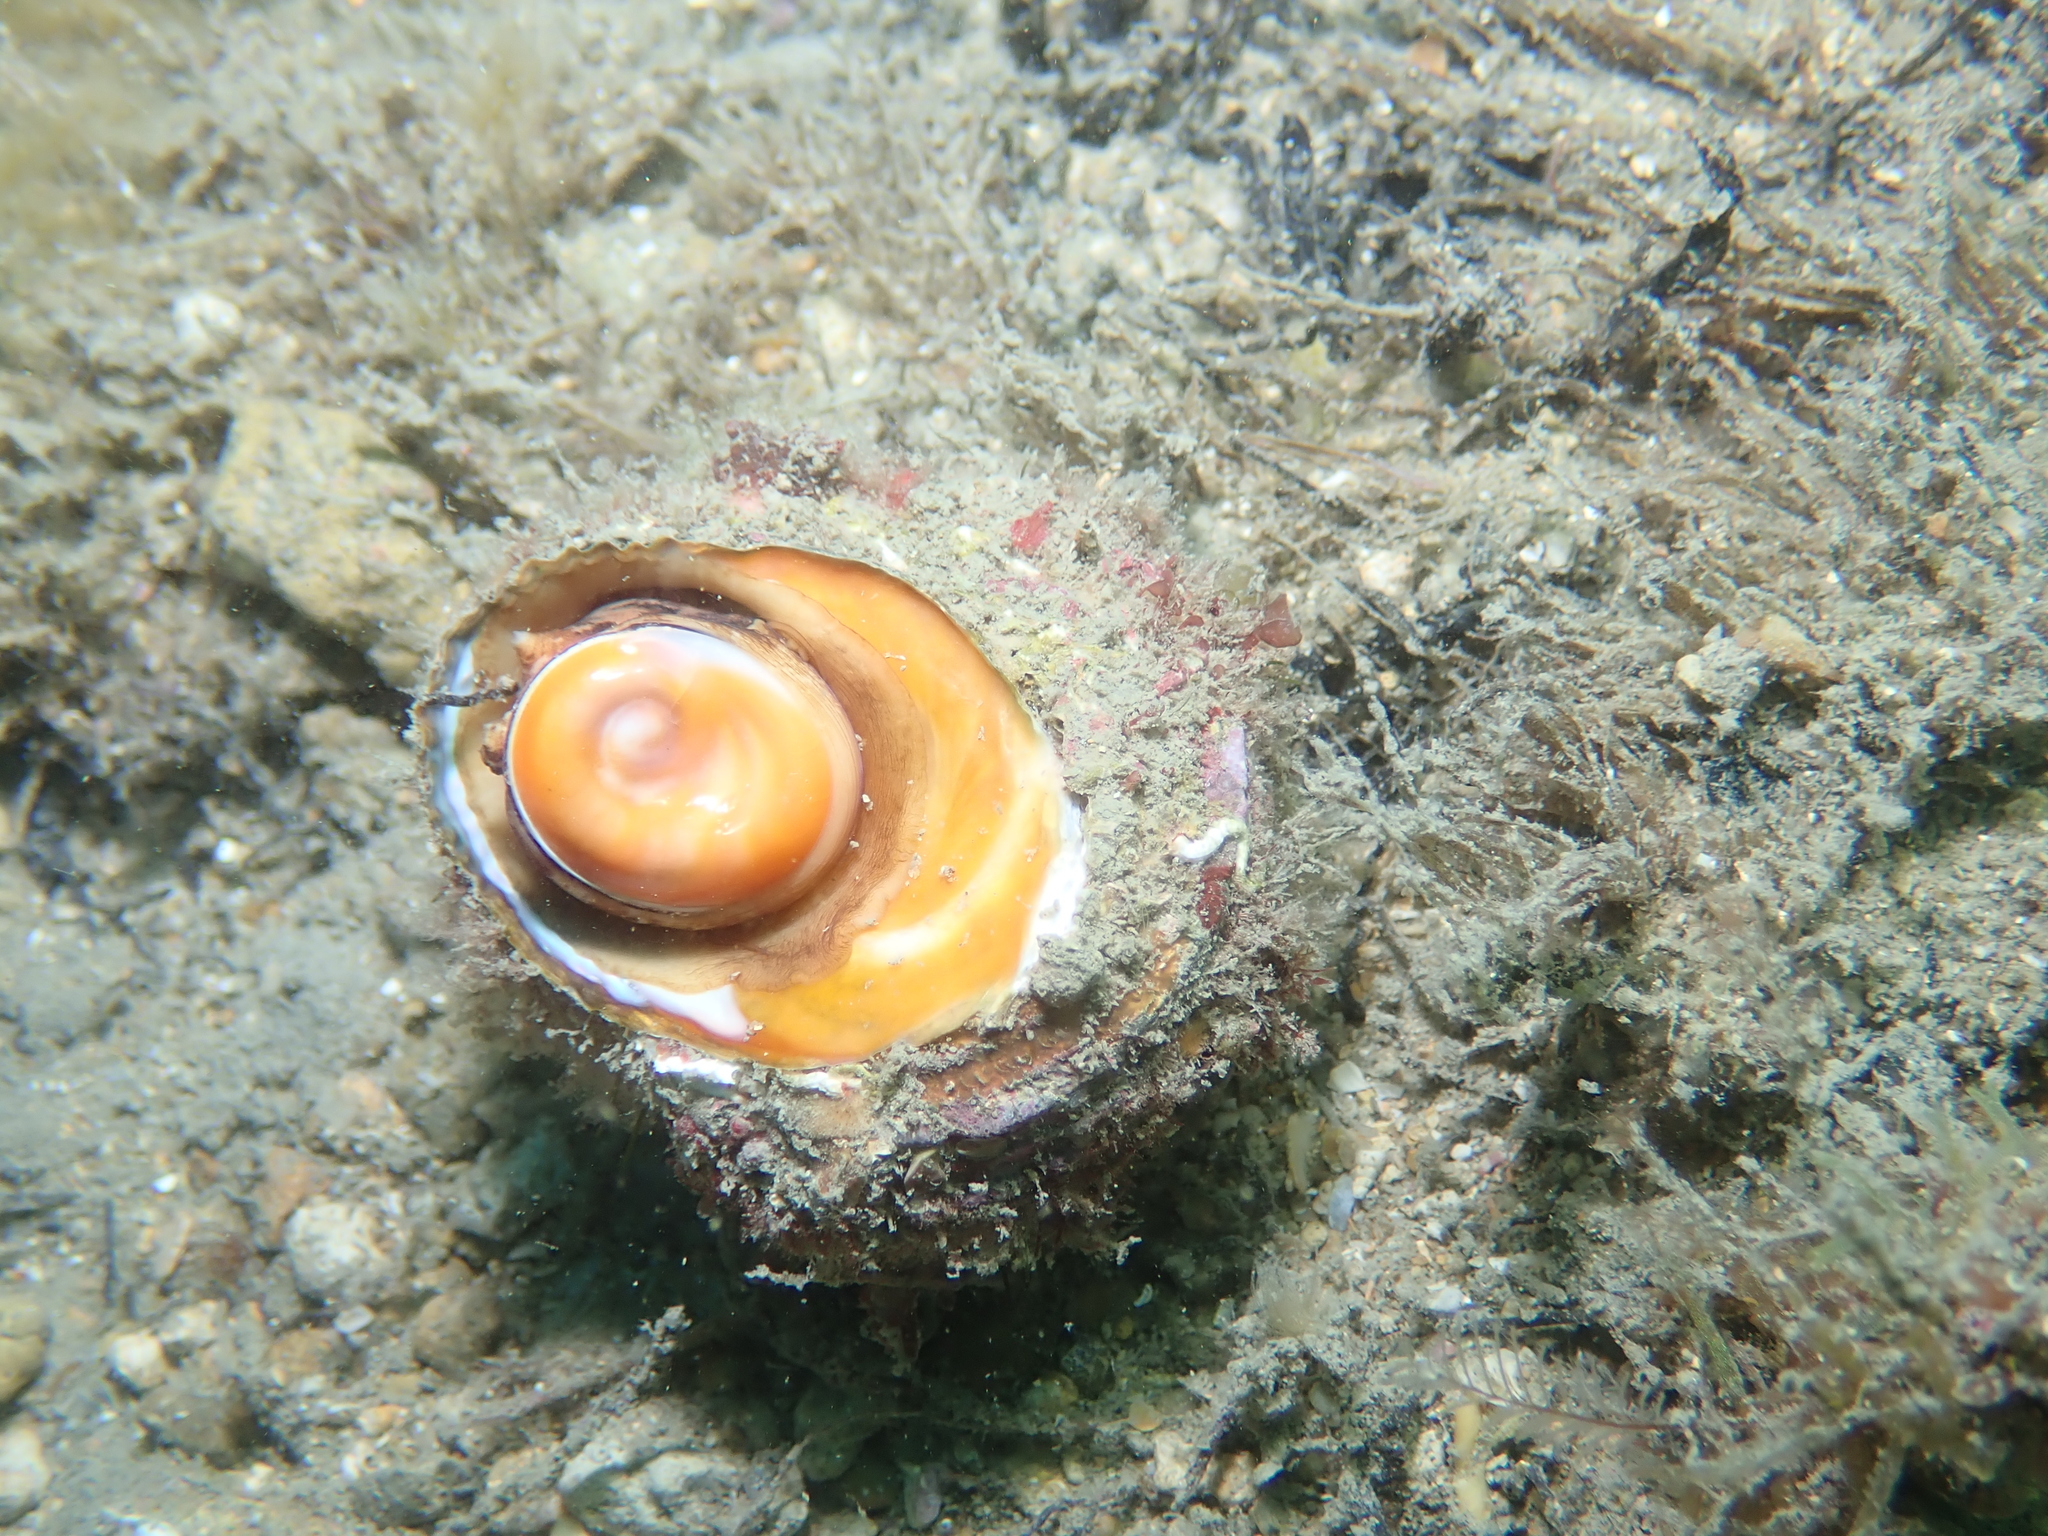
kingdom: Animalia
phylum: Mollusca
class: Gastropoda
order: Trochida
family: Turbinidae
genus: Bolma
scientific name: Bolma rugosa
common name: Rough star shell
